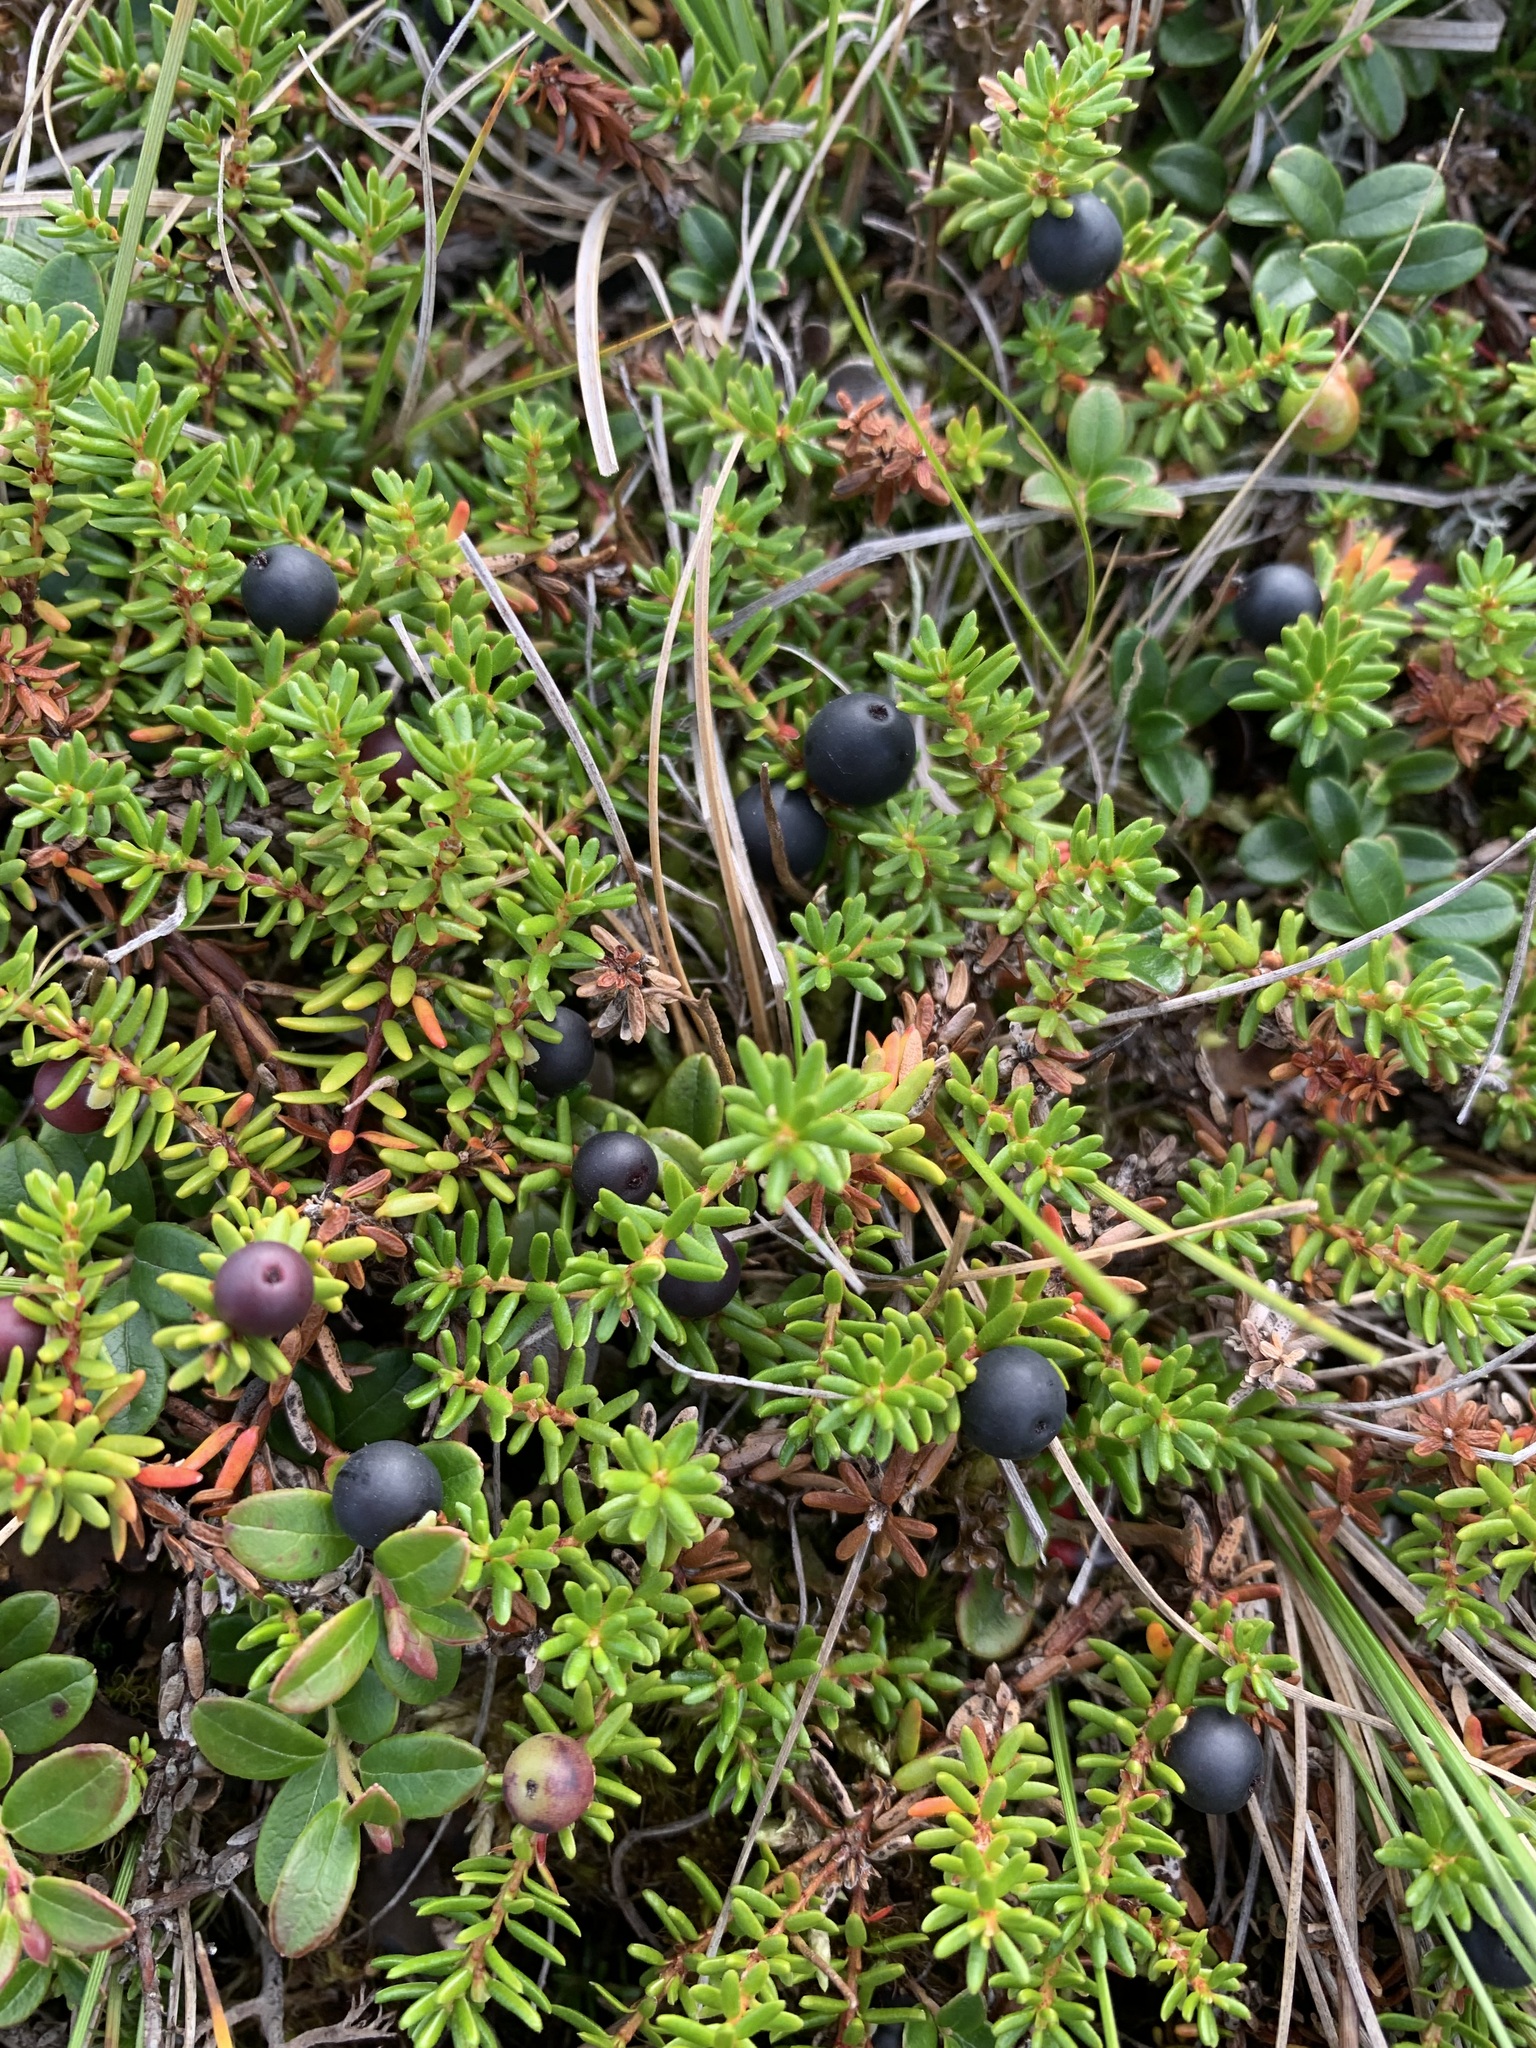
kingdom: Plantae
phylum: Tracheophyta
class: Magnoliopsida
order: Ericales
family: Ericaceae
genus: Empetrum
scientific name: Empetrum nigrum
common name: Black crowberry
